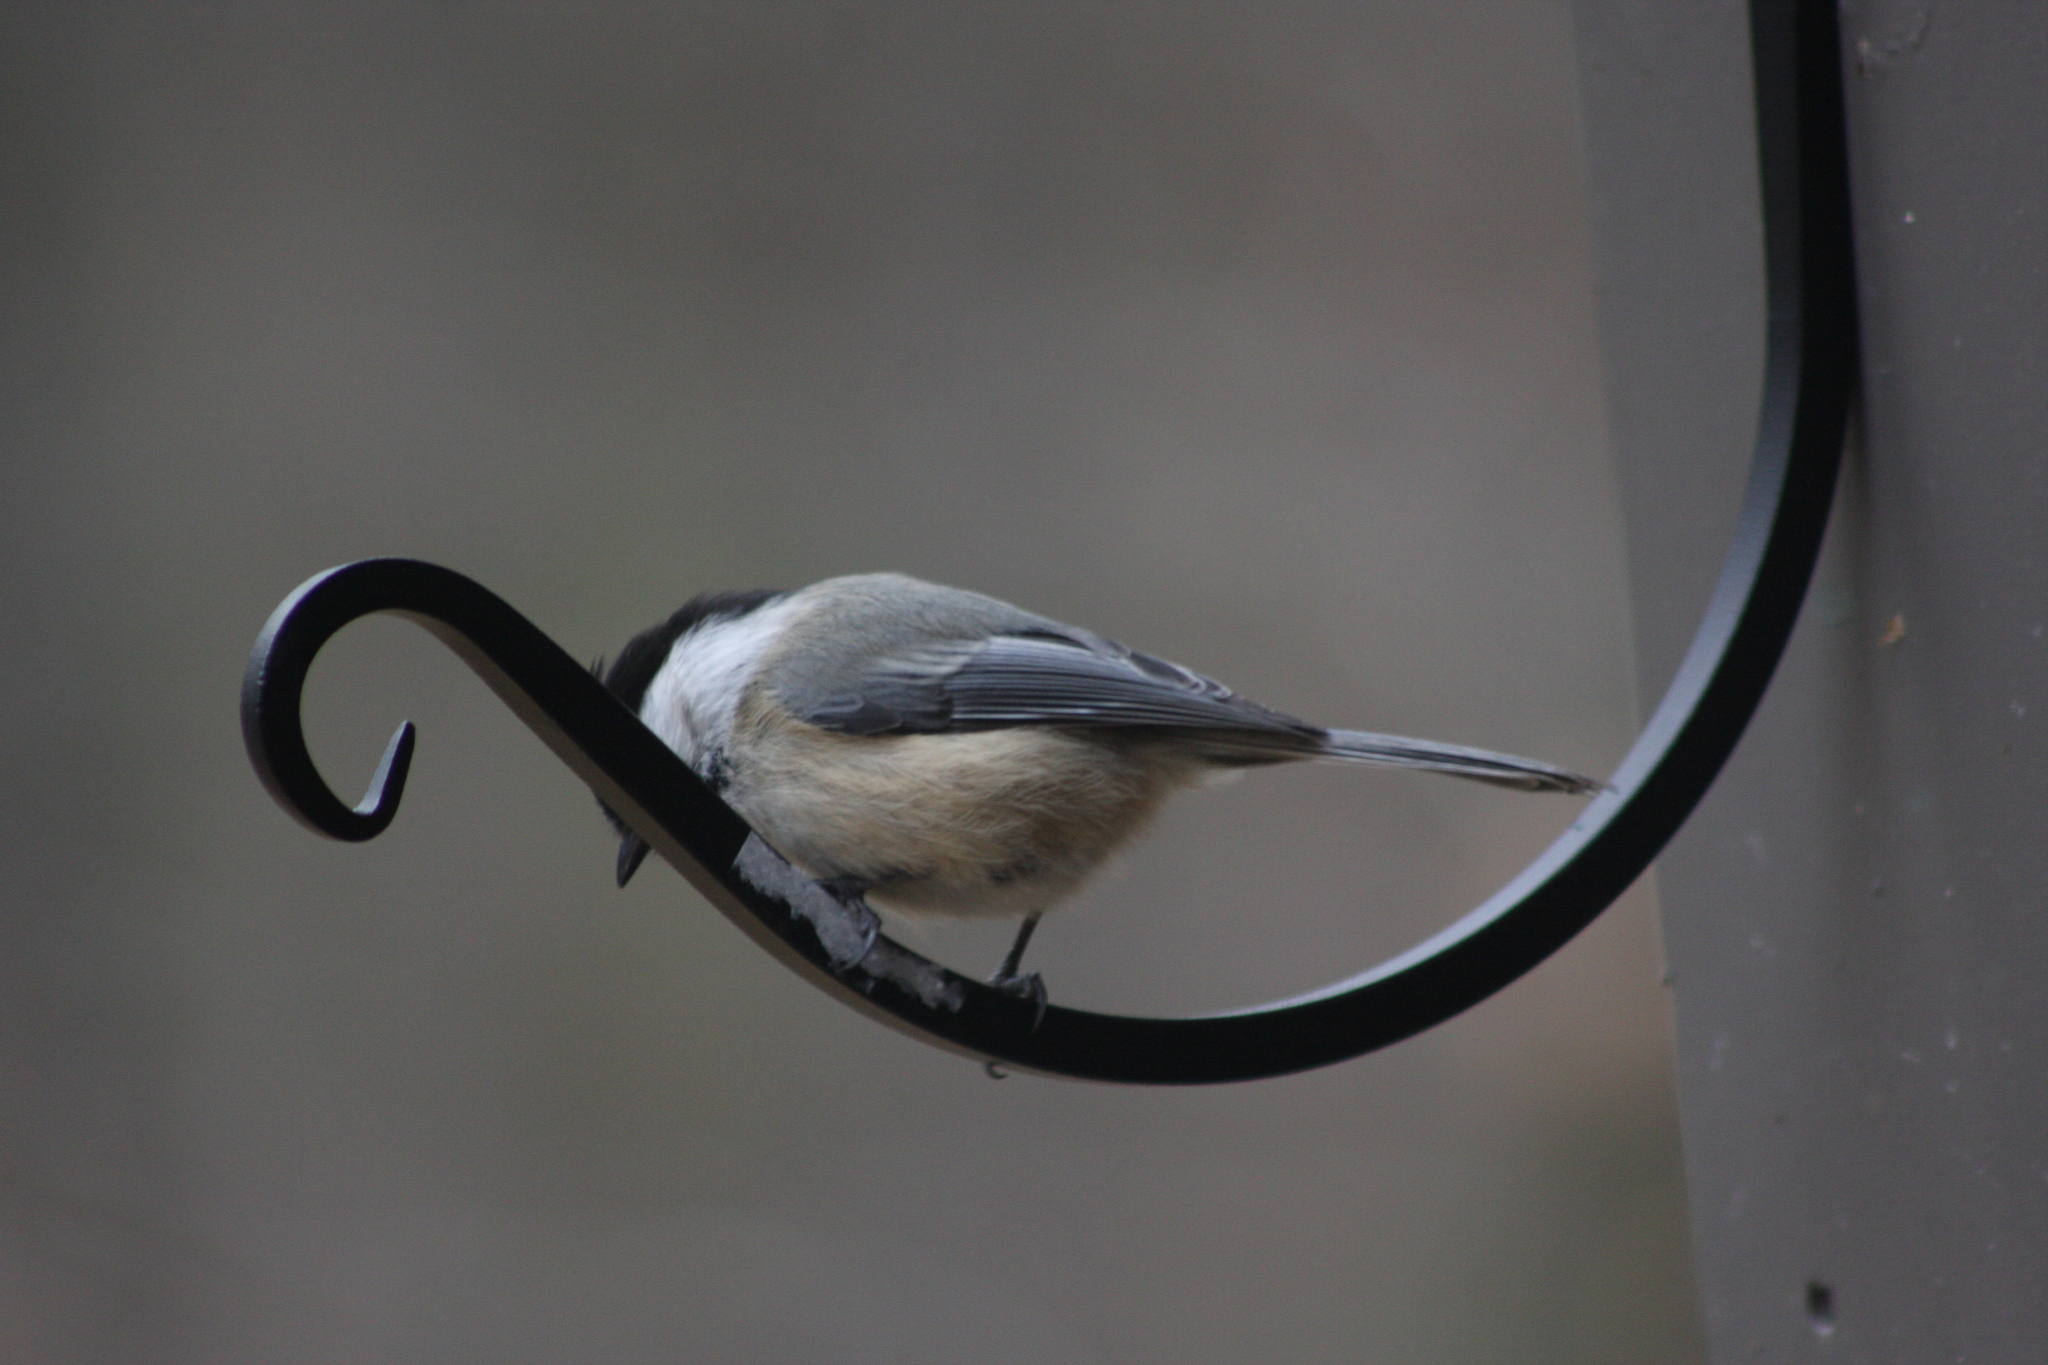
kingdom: Animalia
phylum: Chordata
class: Aves
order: Passeriformes
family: Paridae
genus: Poecile
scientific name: Poecile atricapillus
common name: Black-capped chickadee
